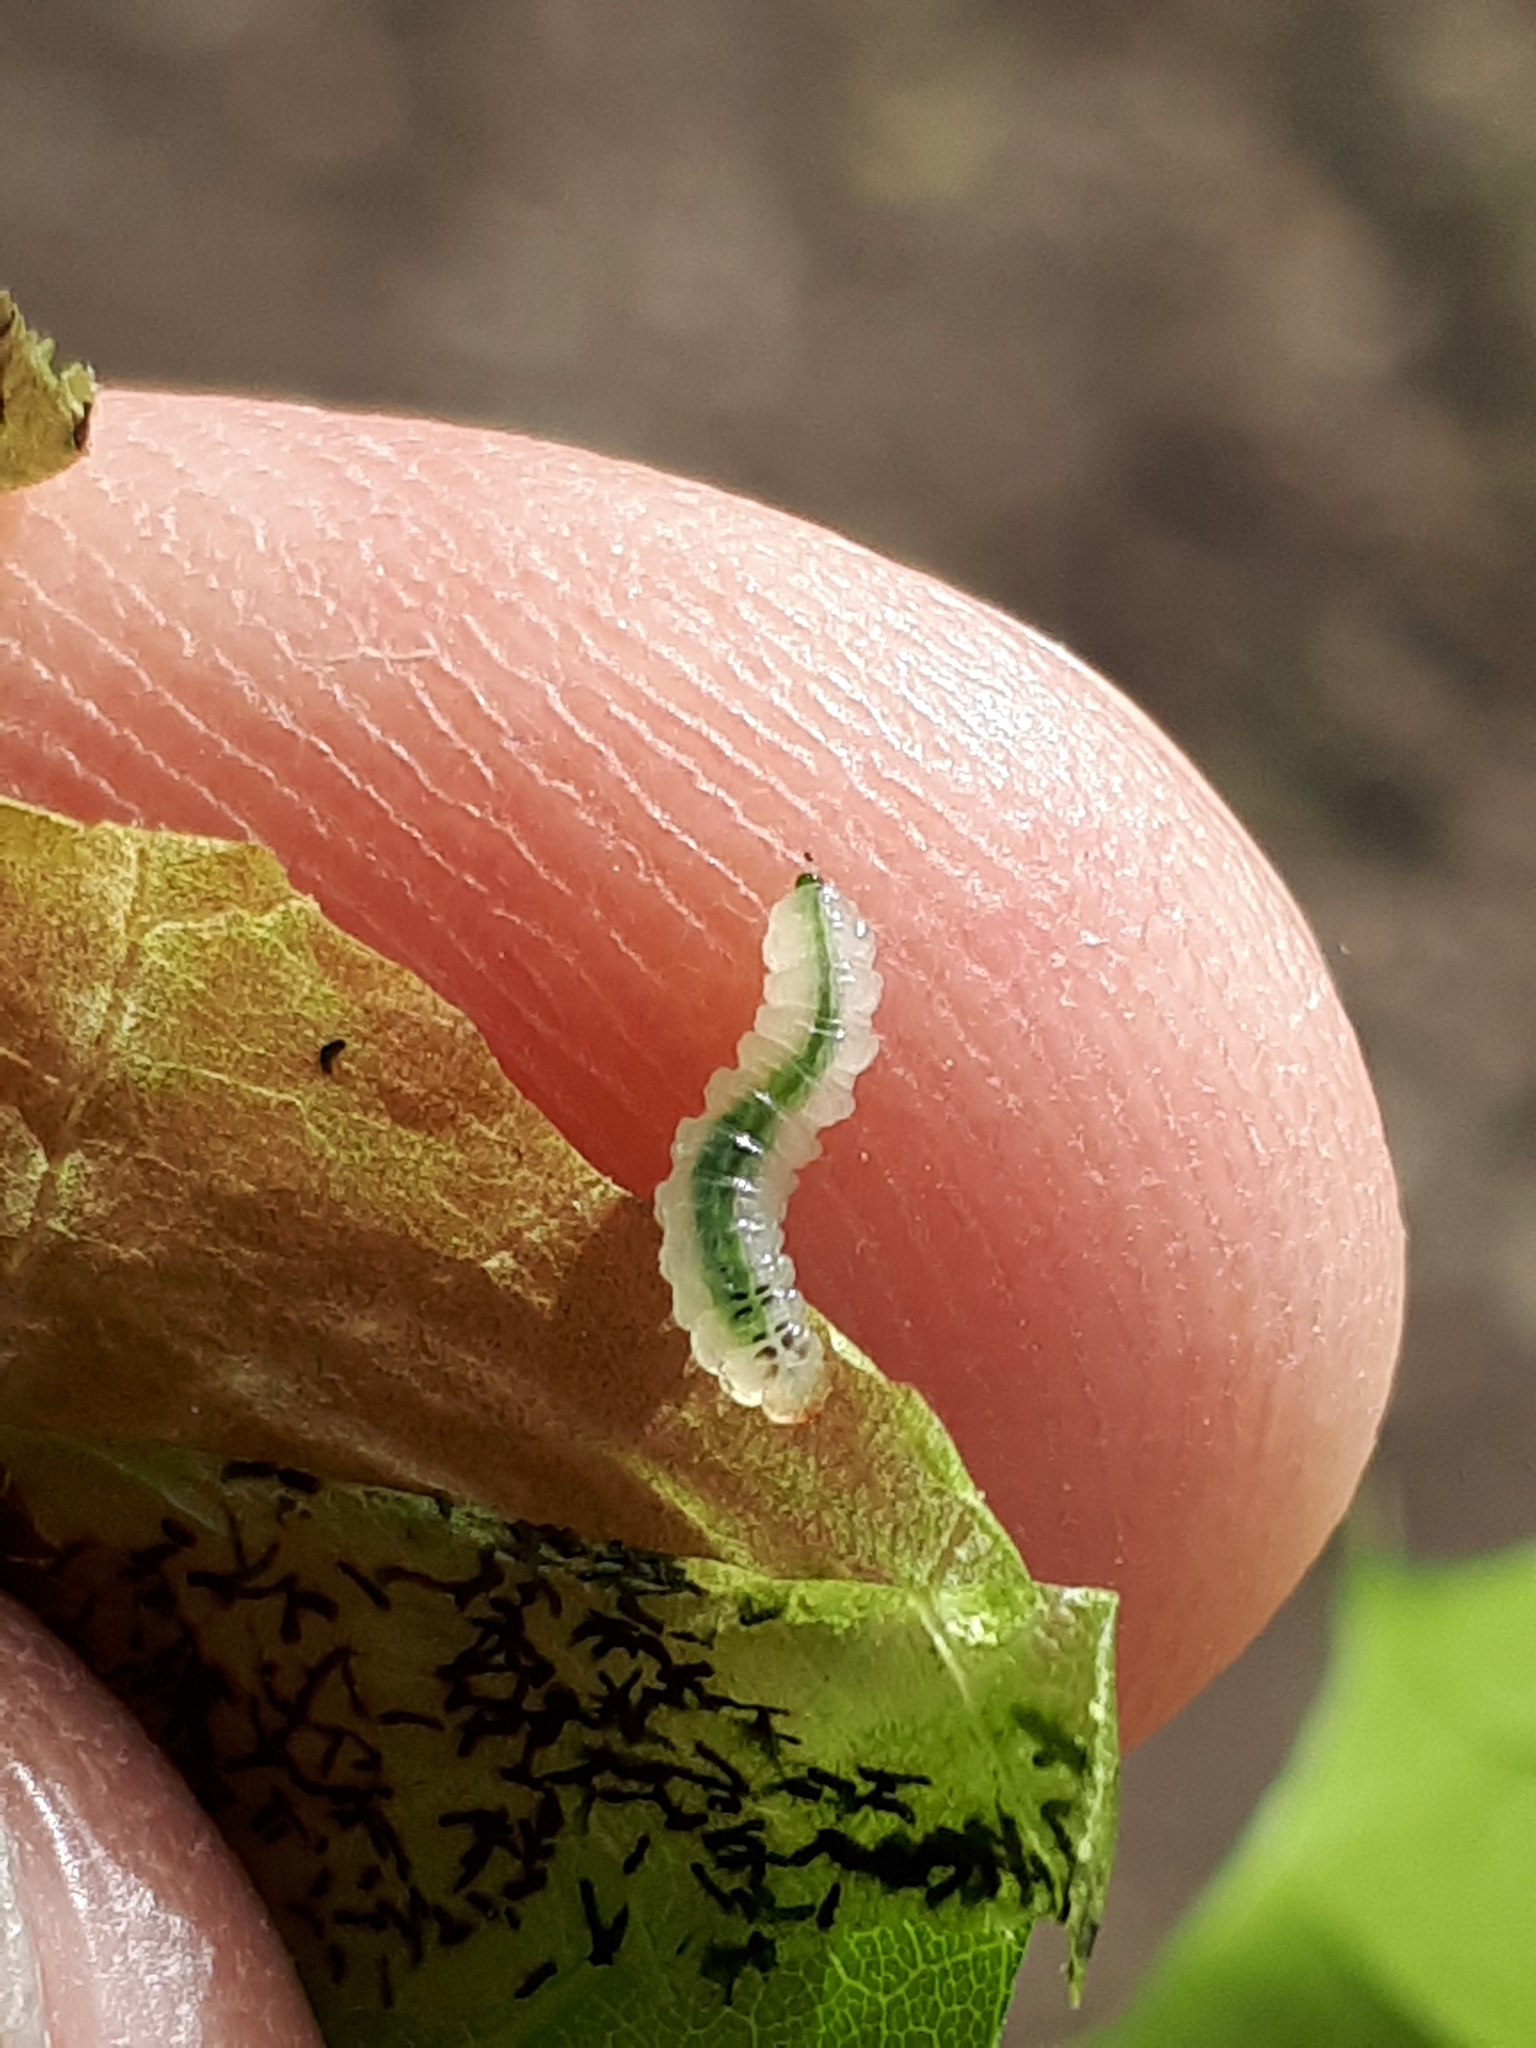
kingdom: Animalia
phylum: Arthropoda
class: Insecta
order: Hymenoptera
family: Tenthredinidae
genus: Hinatara
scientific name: Hinatara recta
